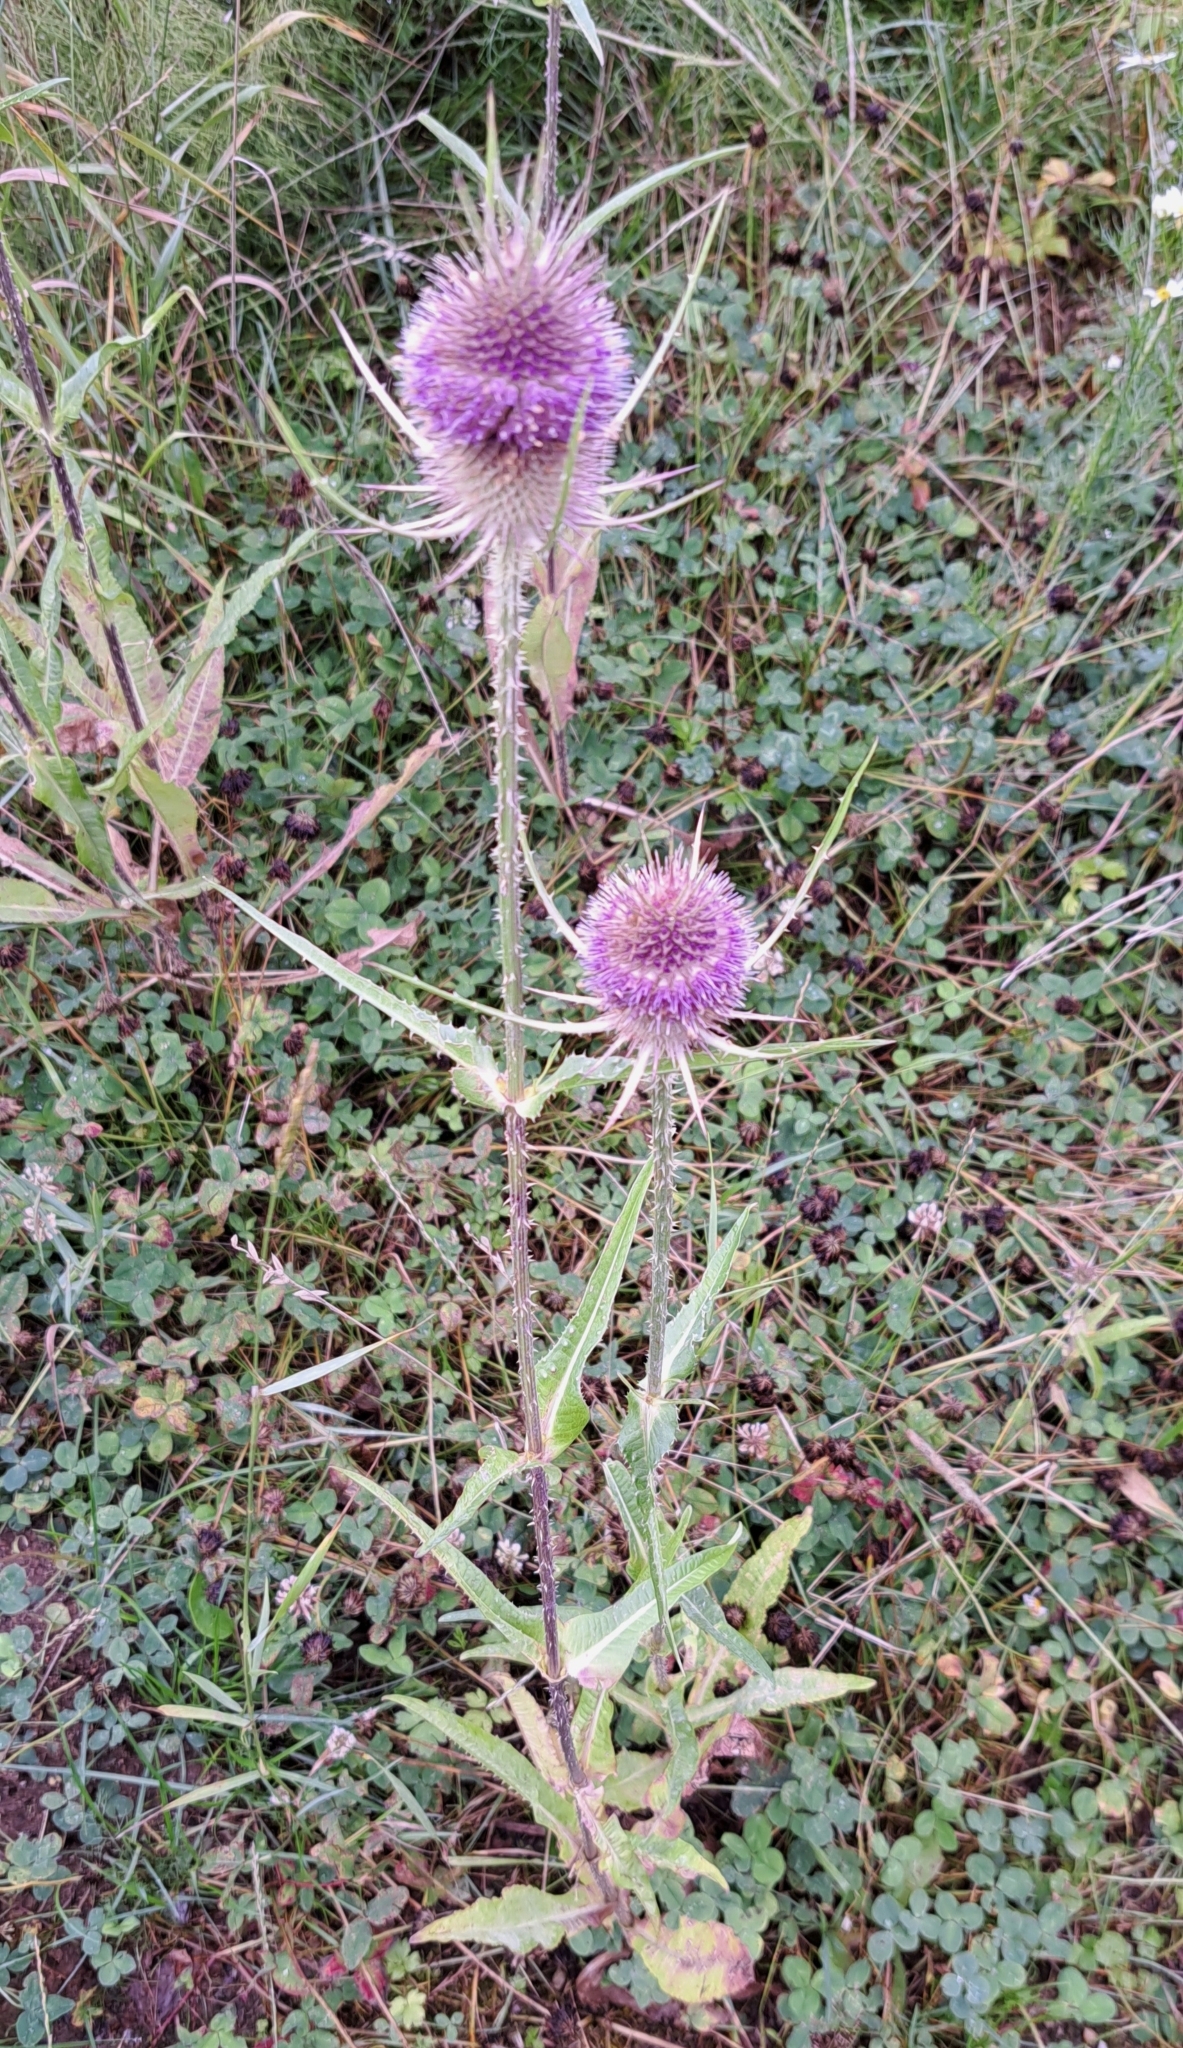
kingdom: Plantae
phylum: Tracheophyta
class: Magnoliopsida
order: Dipsacales
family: Caprifoliaceae
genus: Dipsacus
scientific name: Dipsacus fullonum
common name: Teasel
